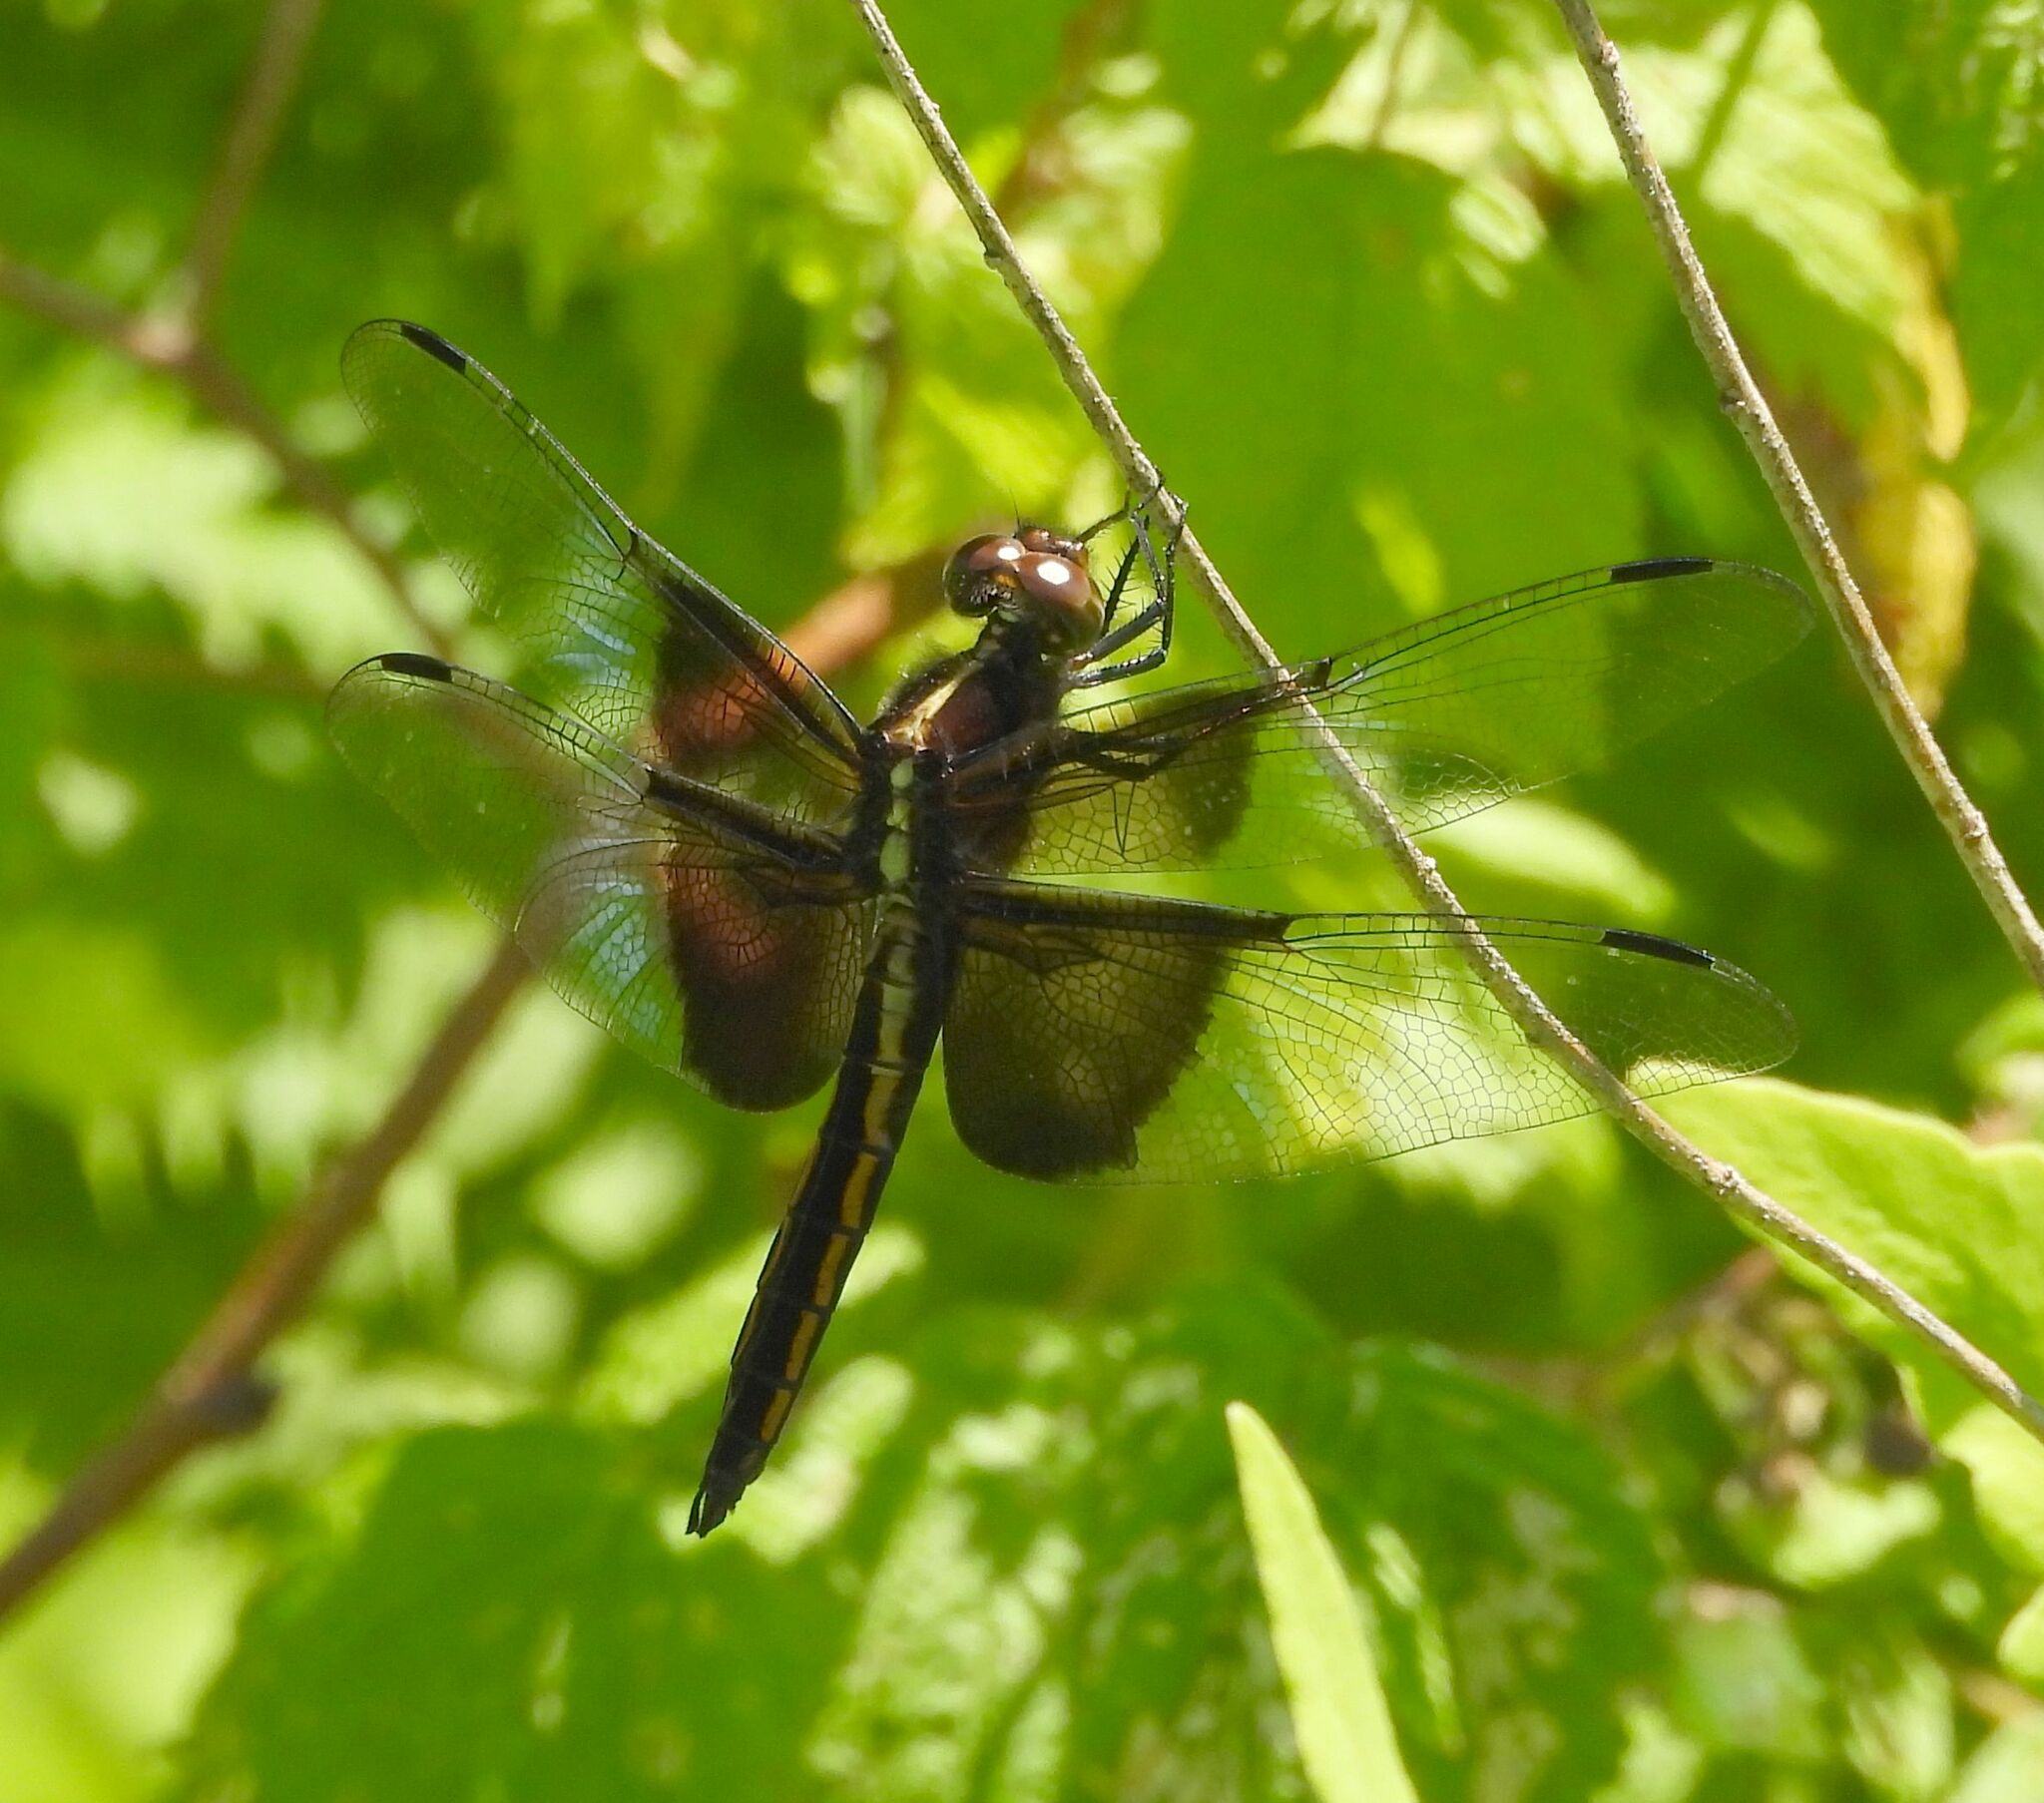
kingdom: Animalia
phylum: Arthropoda
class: Insecta
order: Odonata
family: Libellulidae
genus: Libellula
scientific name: Libellula luctuosa
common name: Widow skimmer
